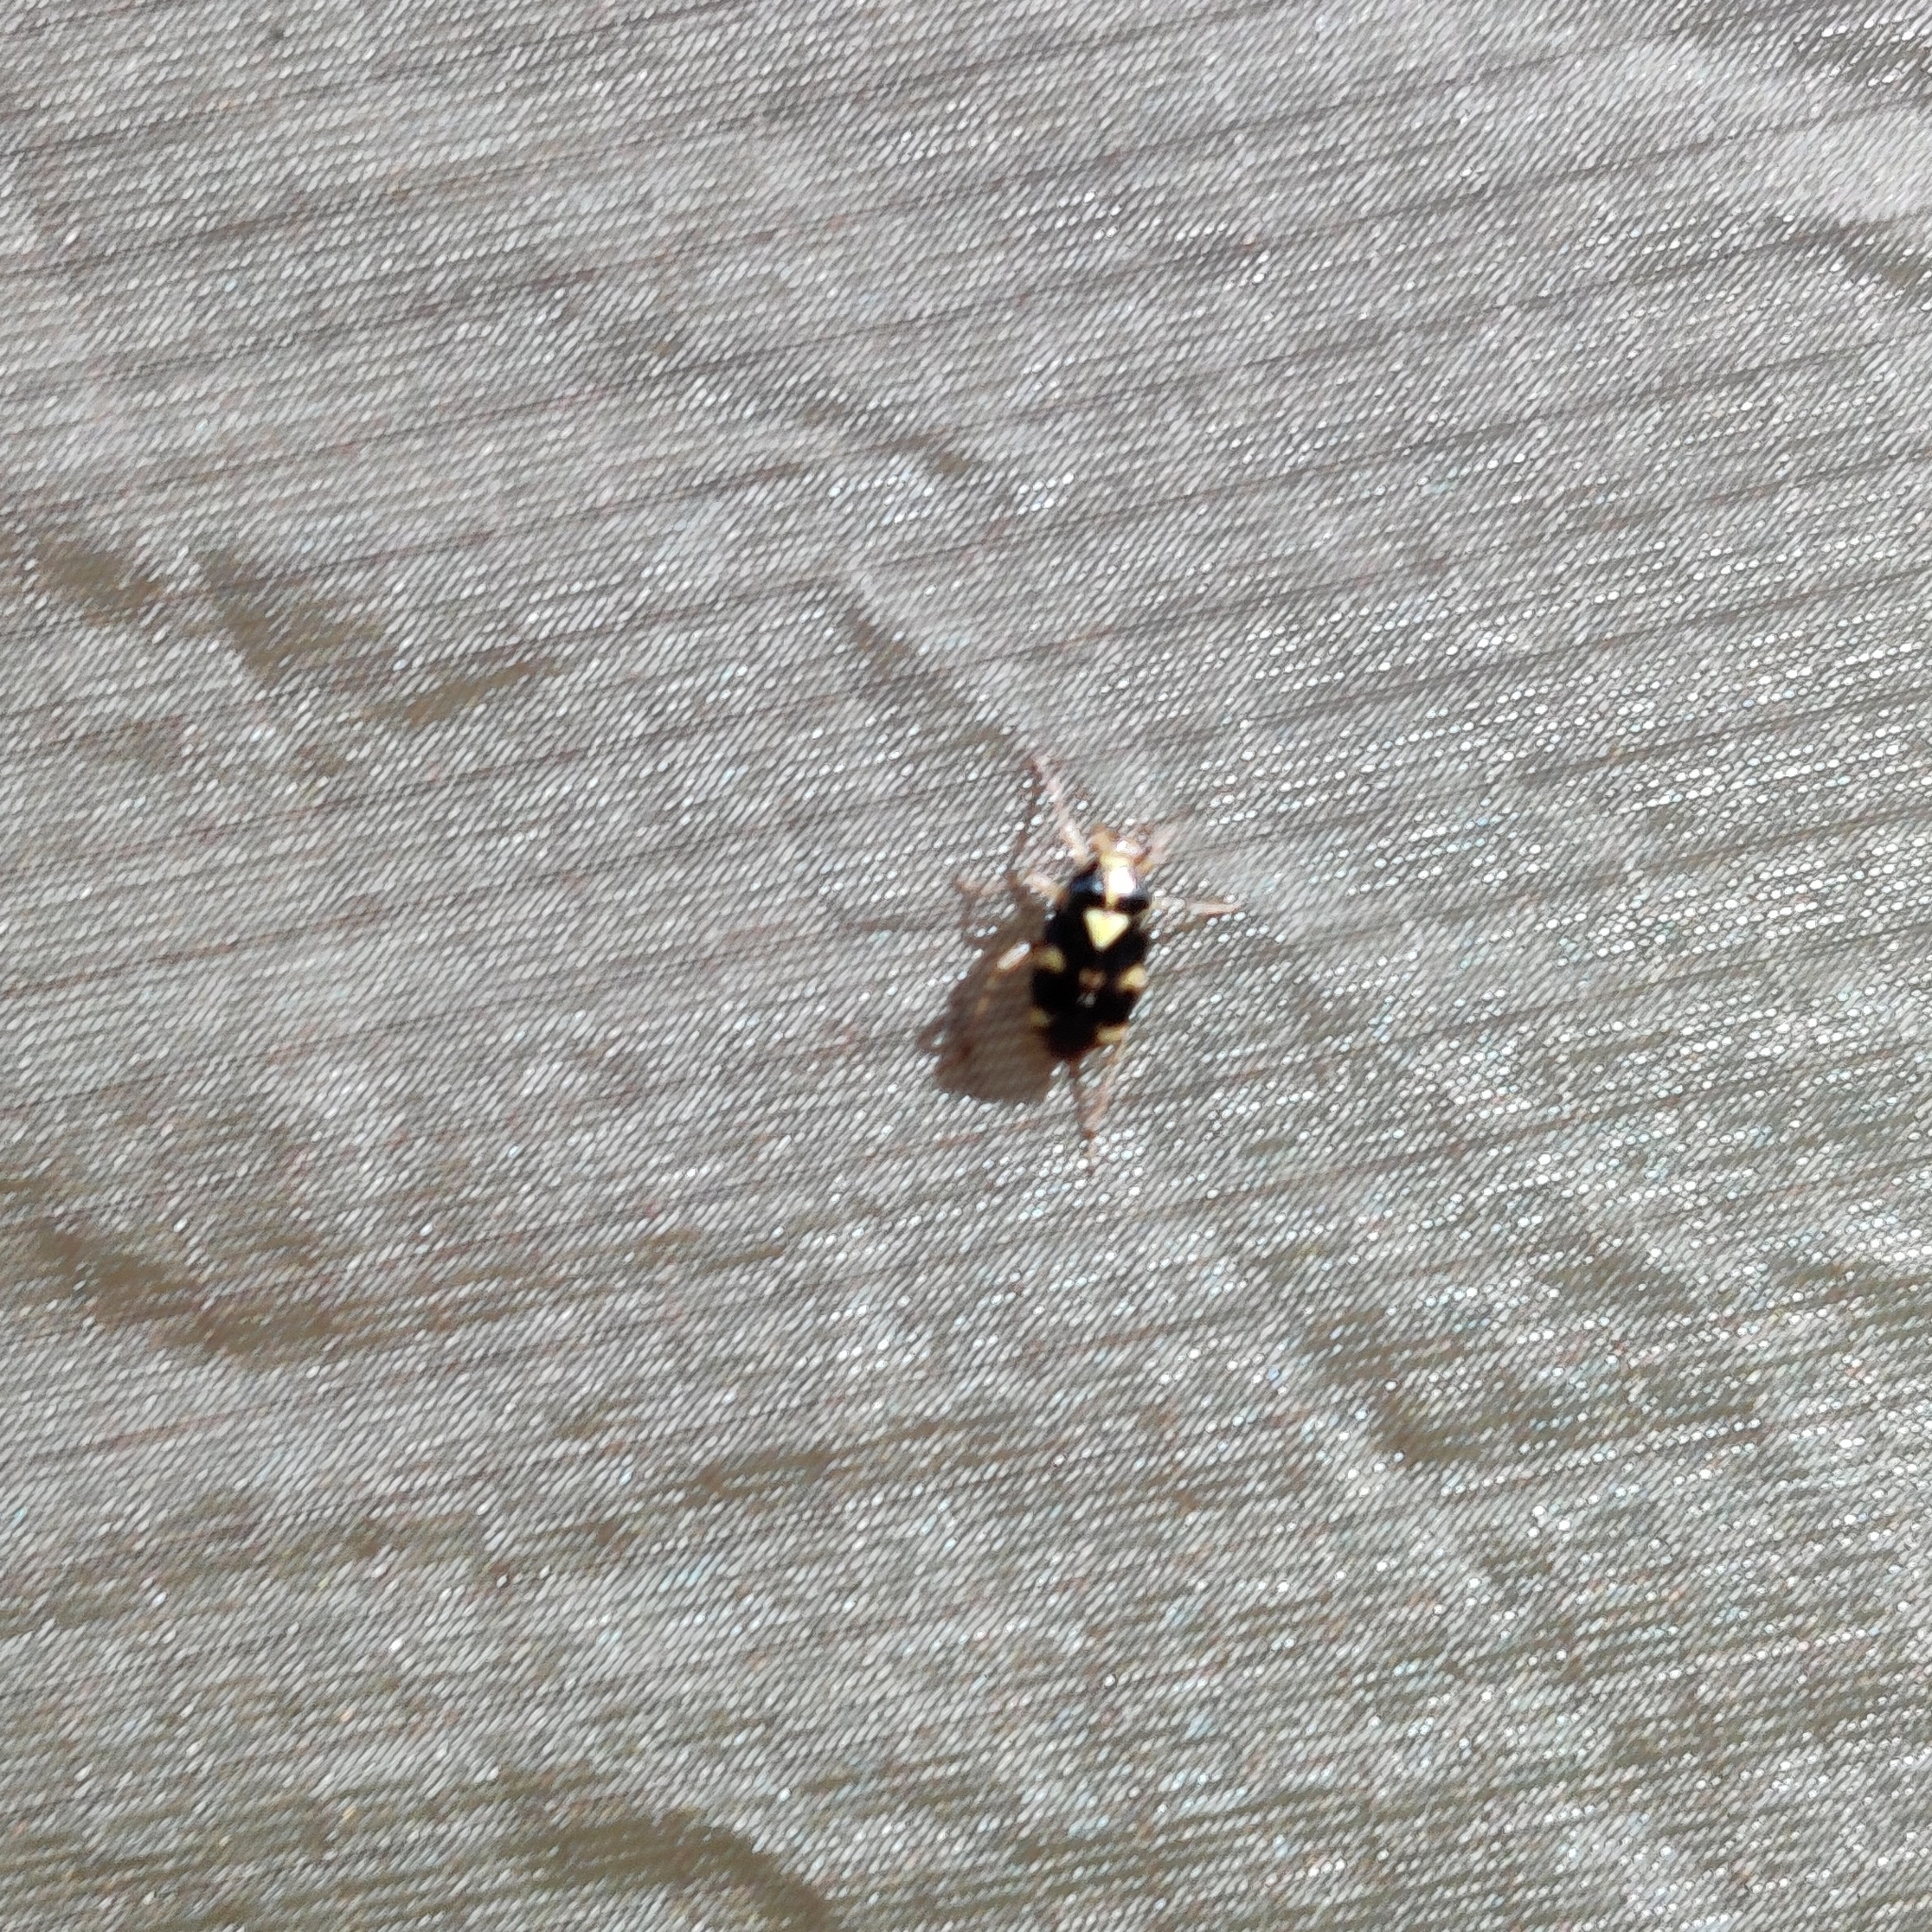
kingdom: Animalia
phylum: Arthropoda
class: Insecta
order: Hemiptera
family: Miridae
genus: Liocoris
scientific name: Liocoris tripustulatus
